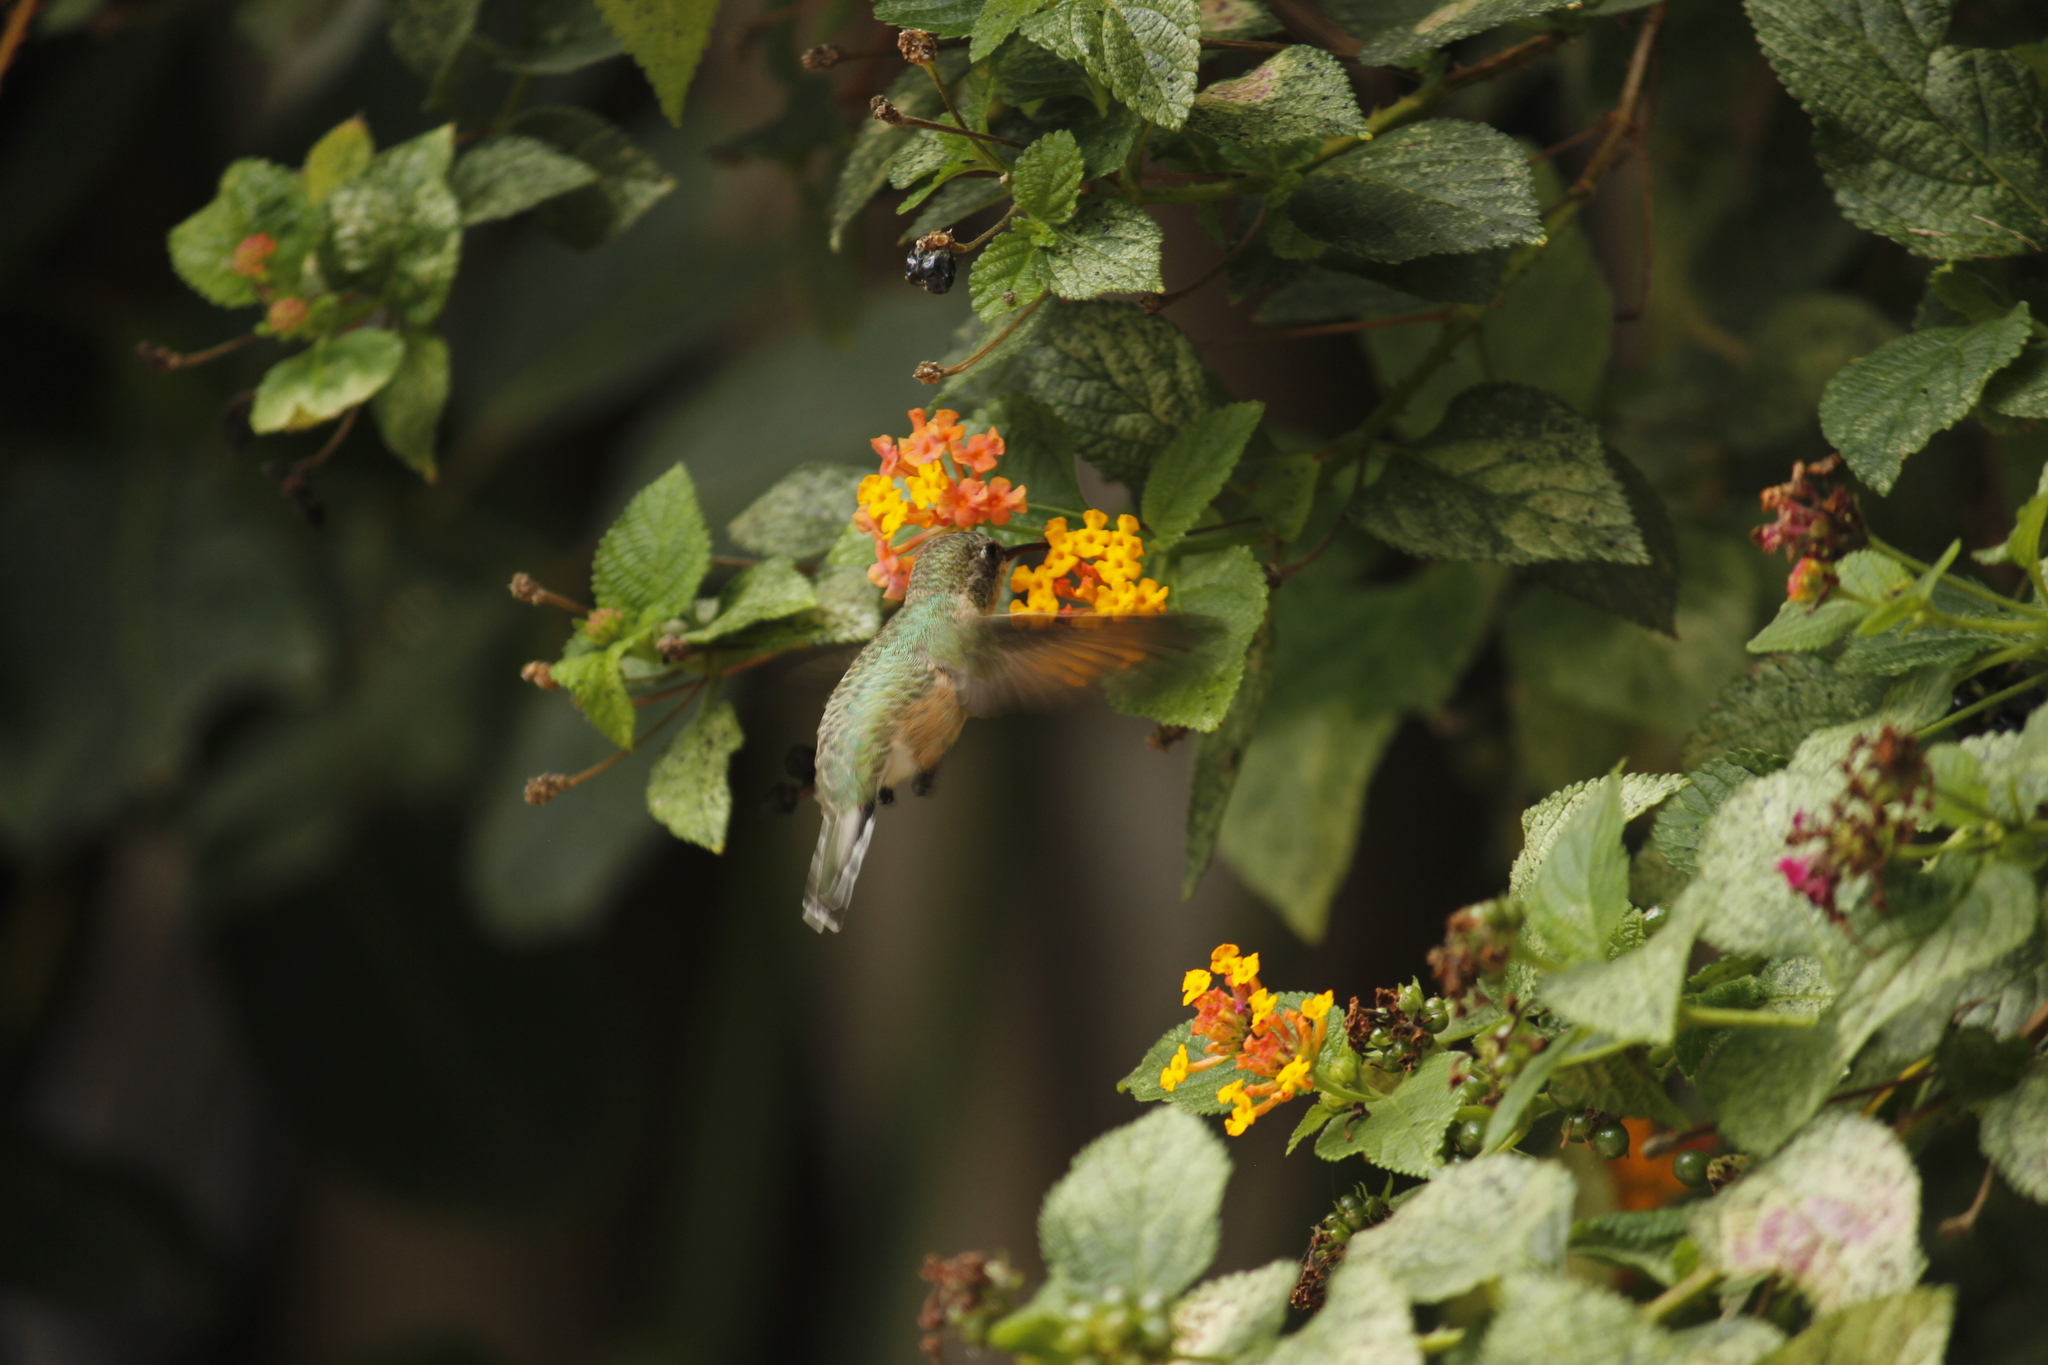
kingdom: Animalia
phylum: Chordata
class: Aves
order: Apodiformes
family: Trochilidae
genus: Myrtis
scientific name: Myrtis fanny
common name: Purple-collared woodstar
